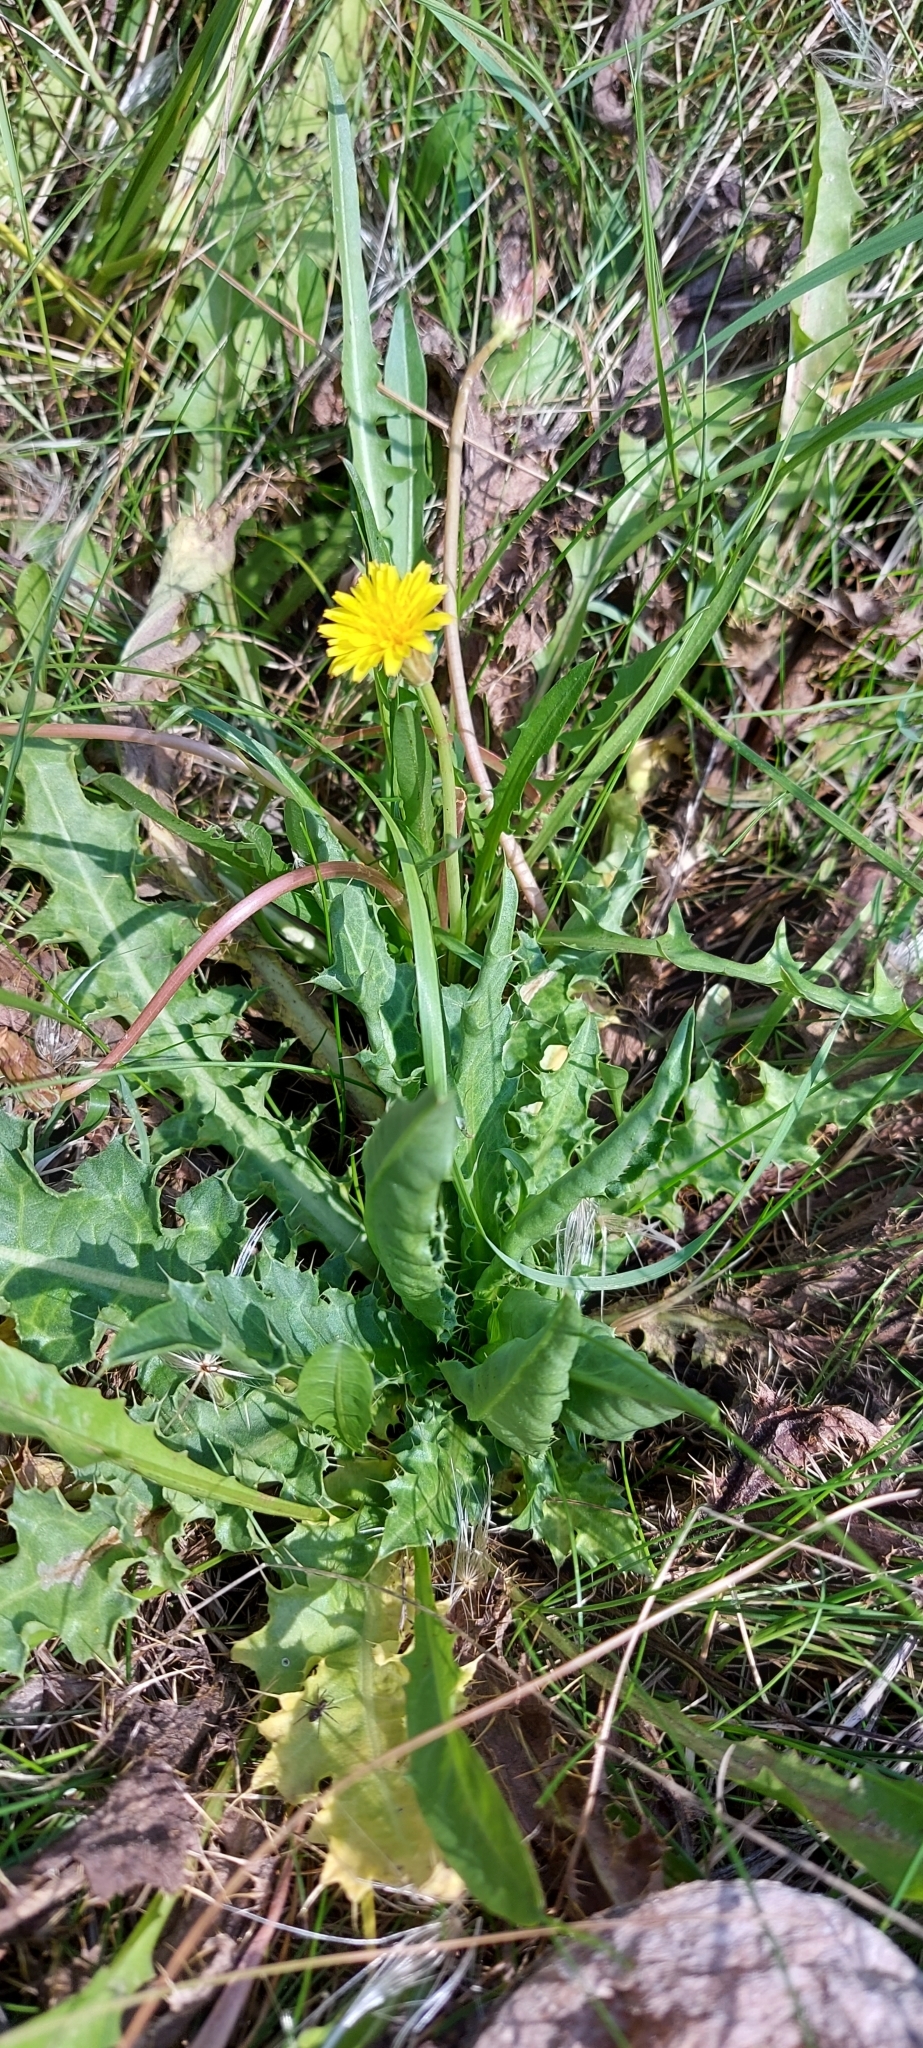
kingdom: Plantae
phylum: Tracheophyta
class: Magnoliopsida
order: Asterales
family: Asteraceae
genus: Taraxacum
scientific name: Taraxacum bessarabicum
